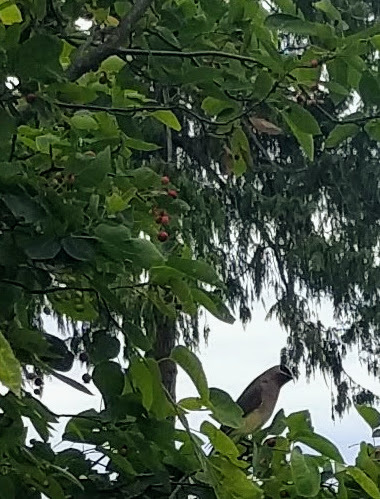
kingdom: Animalia
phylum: Chordata
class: Aves
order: Passeriformes
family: Bombycillidae
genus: Bombycilla
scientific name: Bombycilla cedrorum
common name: Cedar waxwing
